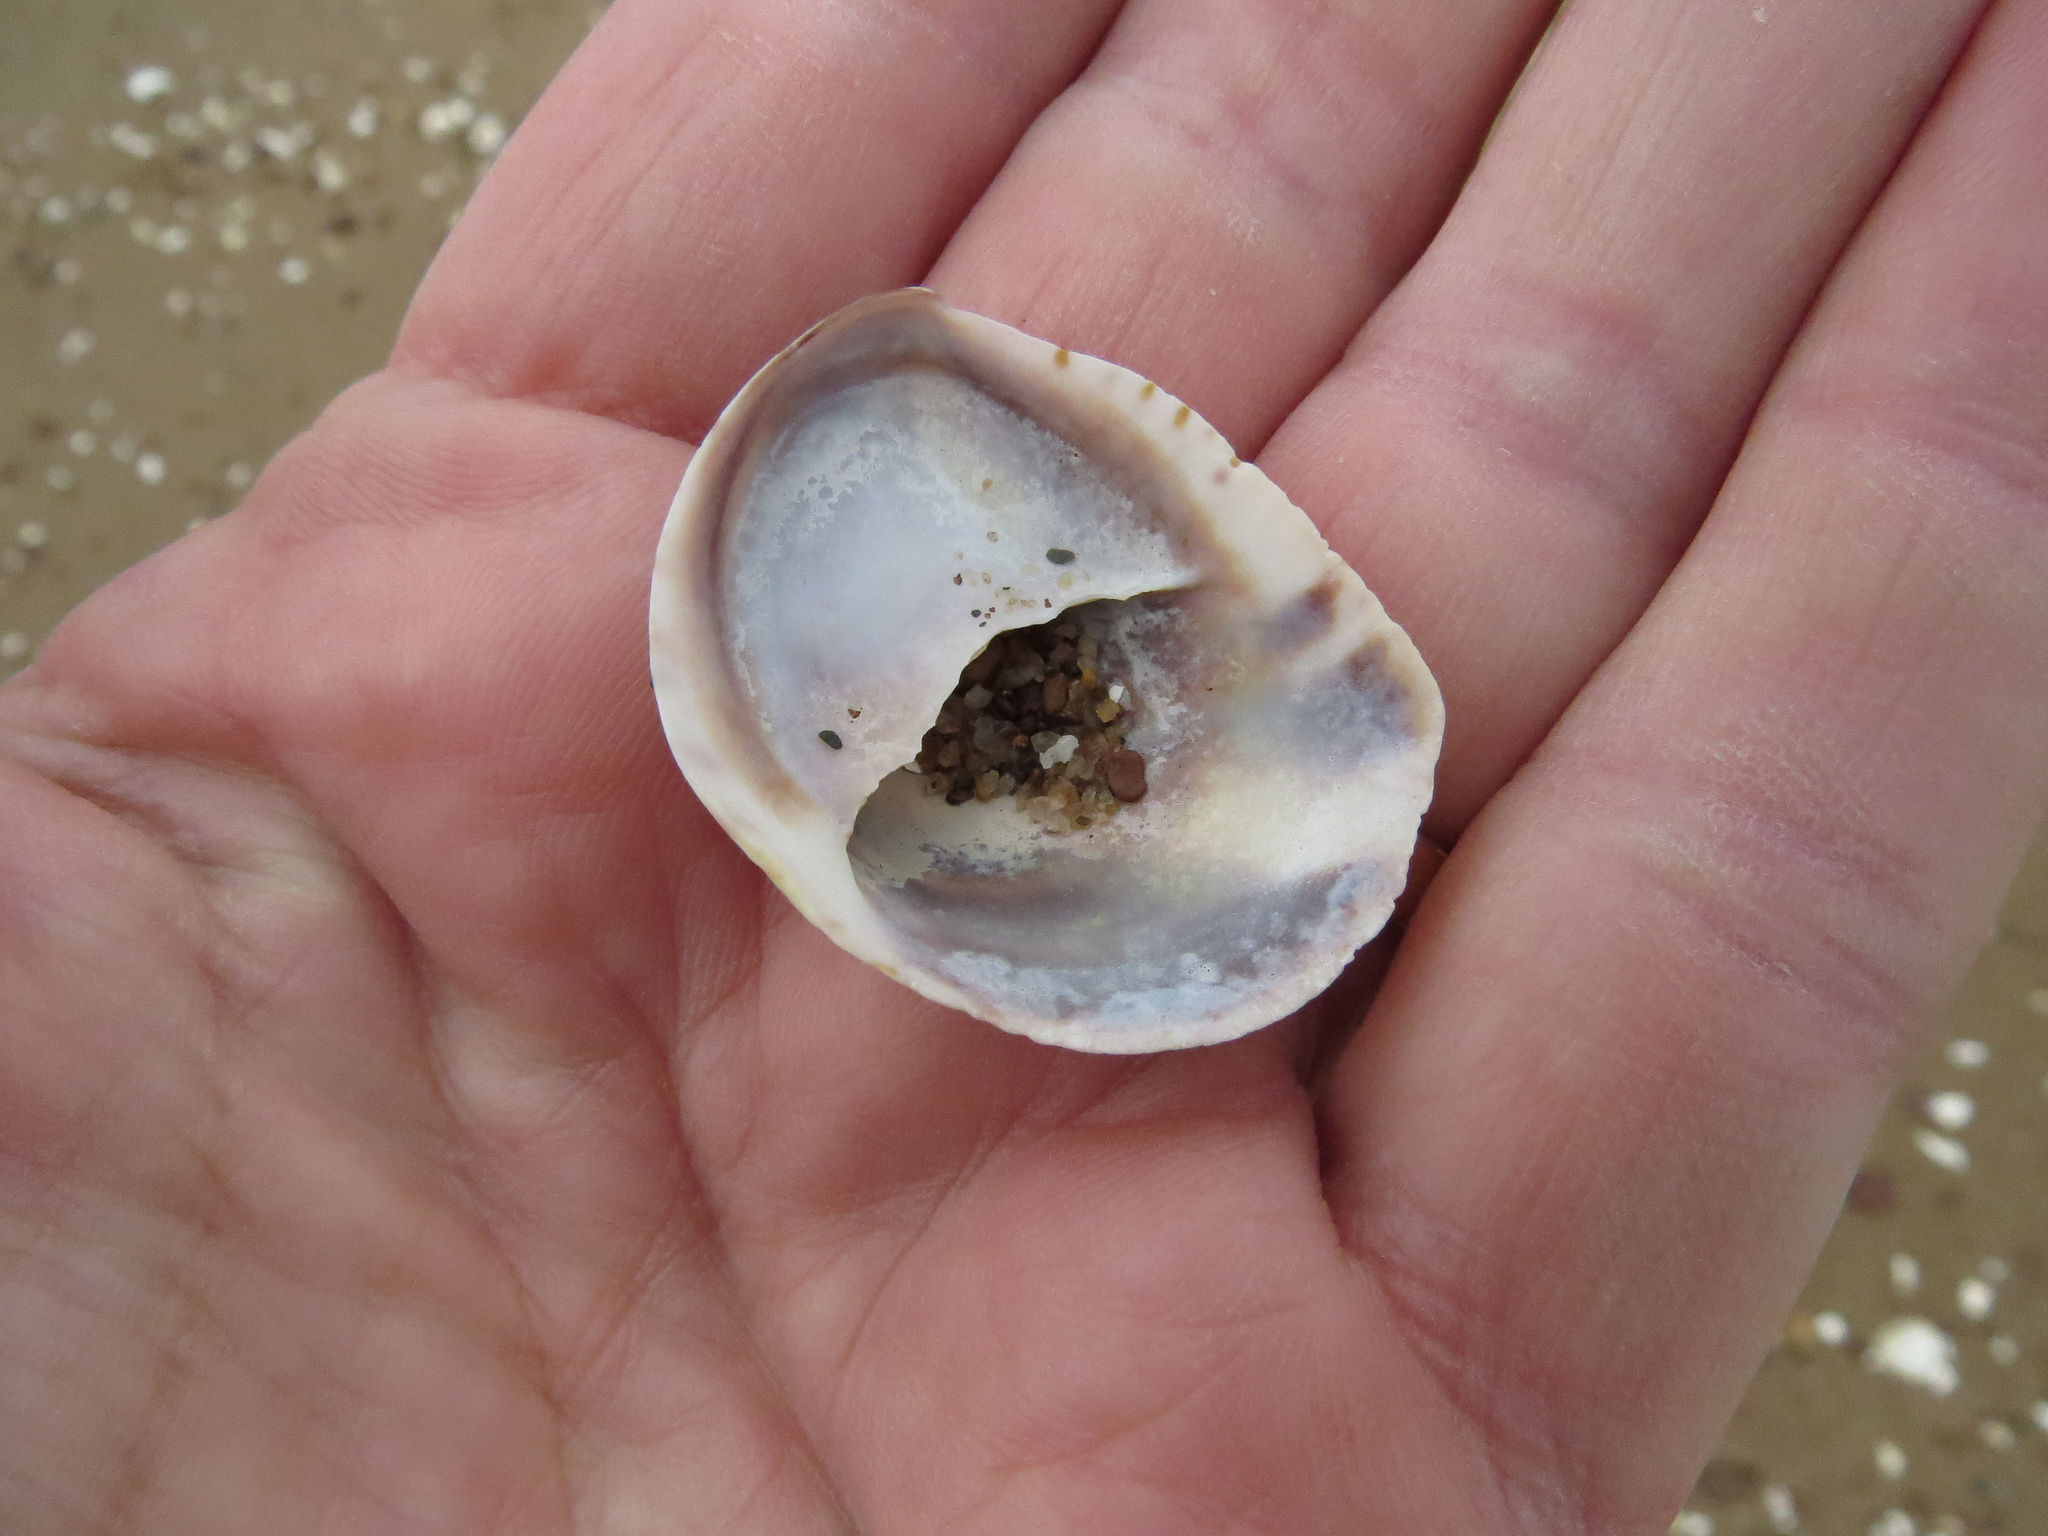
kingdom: Animalia
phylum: Mollusca
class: Gastropoda
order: Littorinimorpha
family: Calyptraeidae
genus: Crepidula
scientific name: Crepidula fornicata
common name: Slipper limpet
